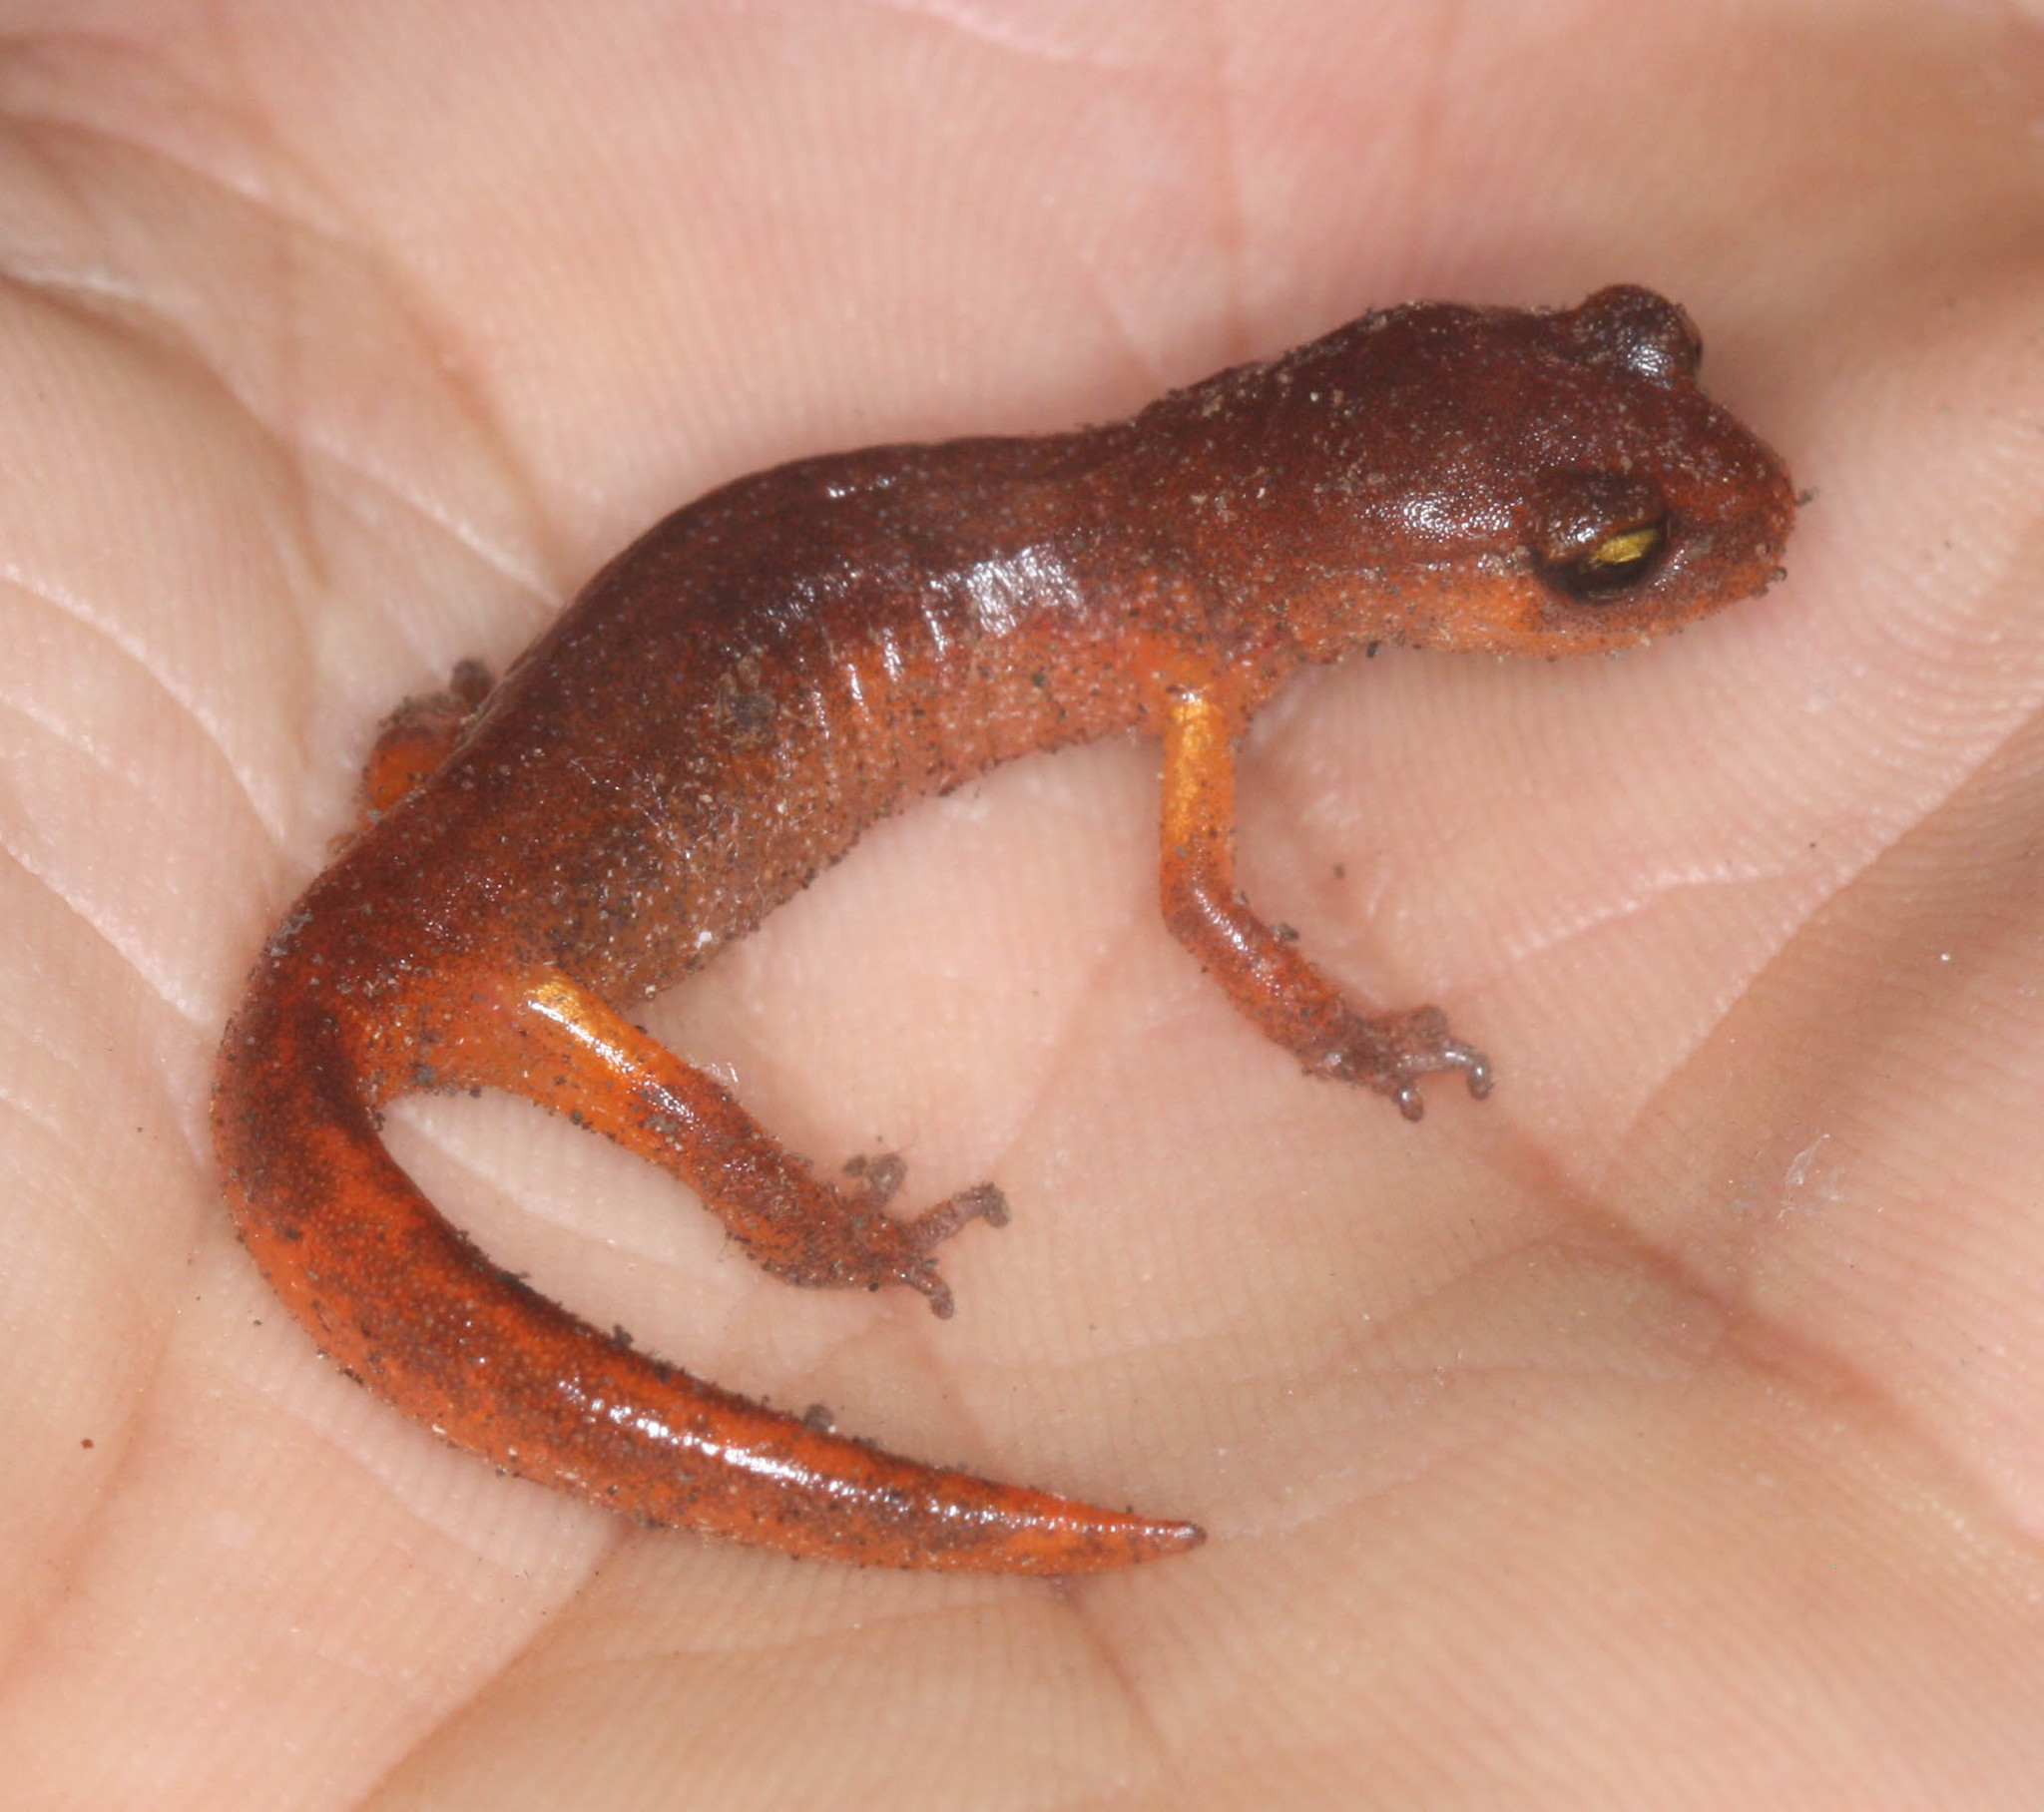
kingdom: Animalia
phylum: Chordata
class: Amphibia
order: Caudata
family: Plethodontidae
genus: Ensatina
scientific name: Ensatina eschscholtzii
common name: Ensatina
